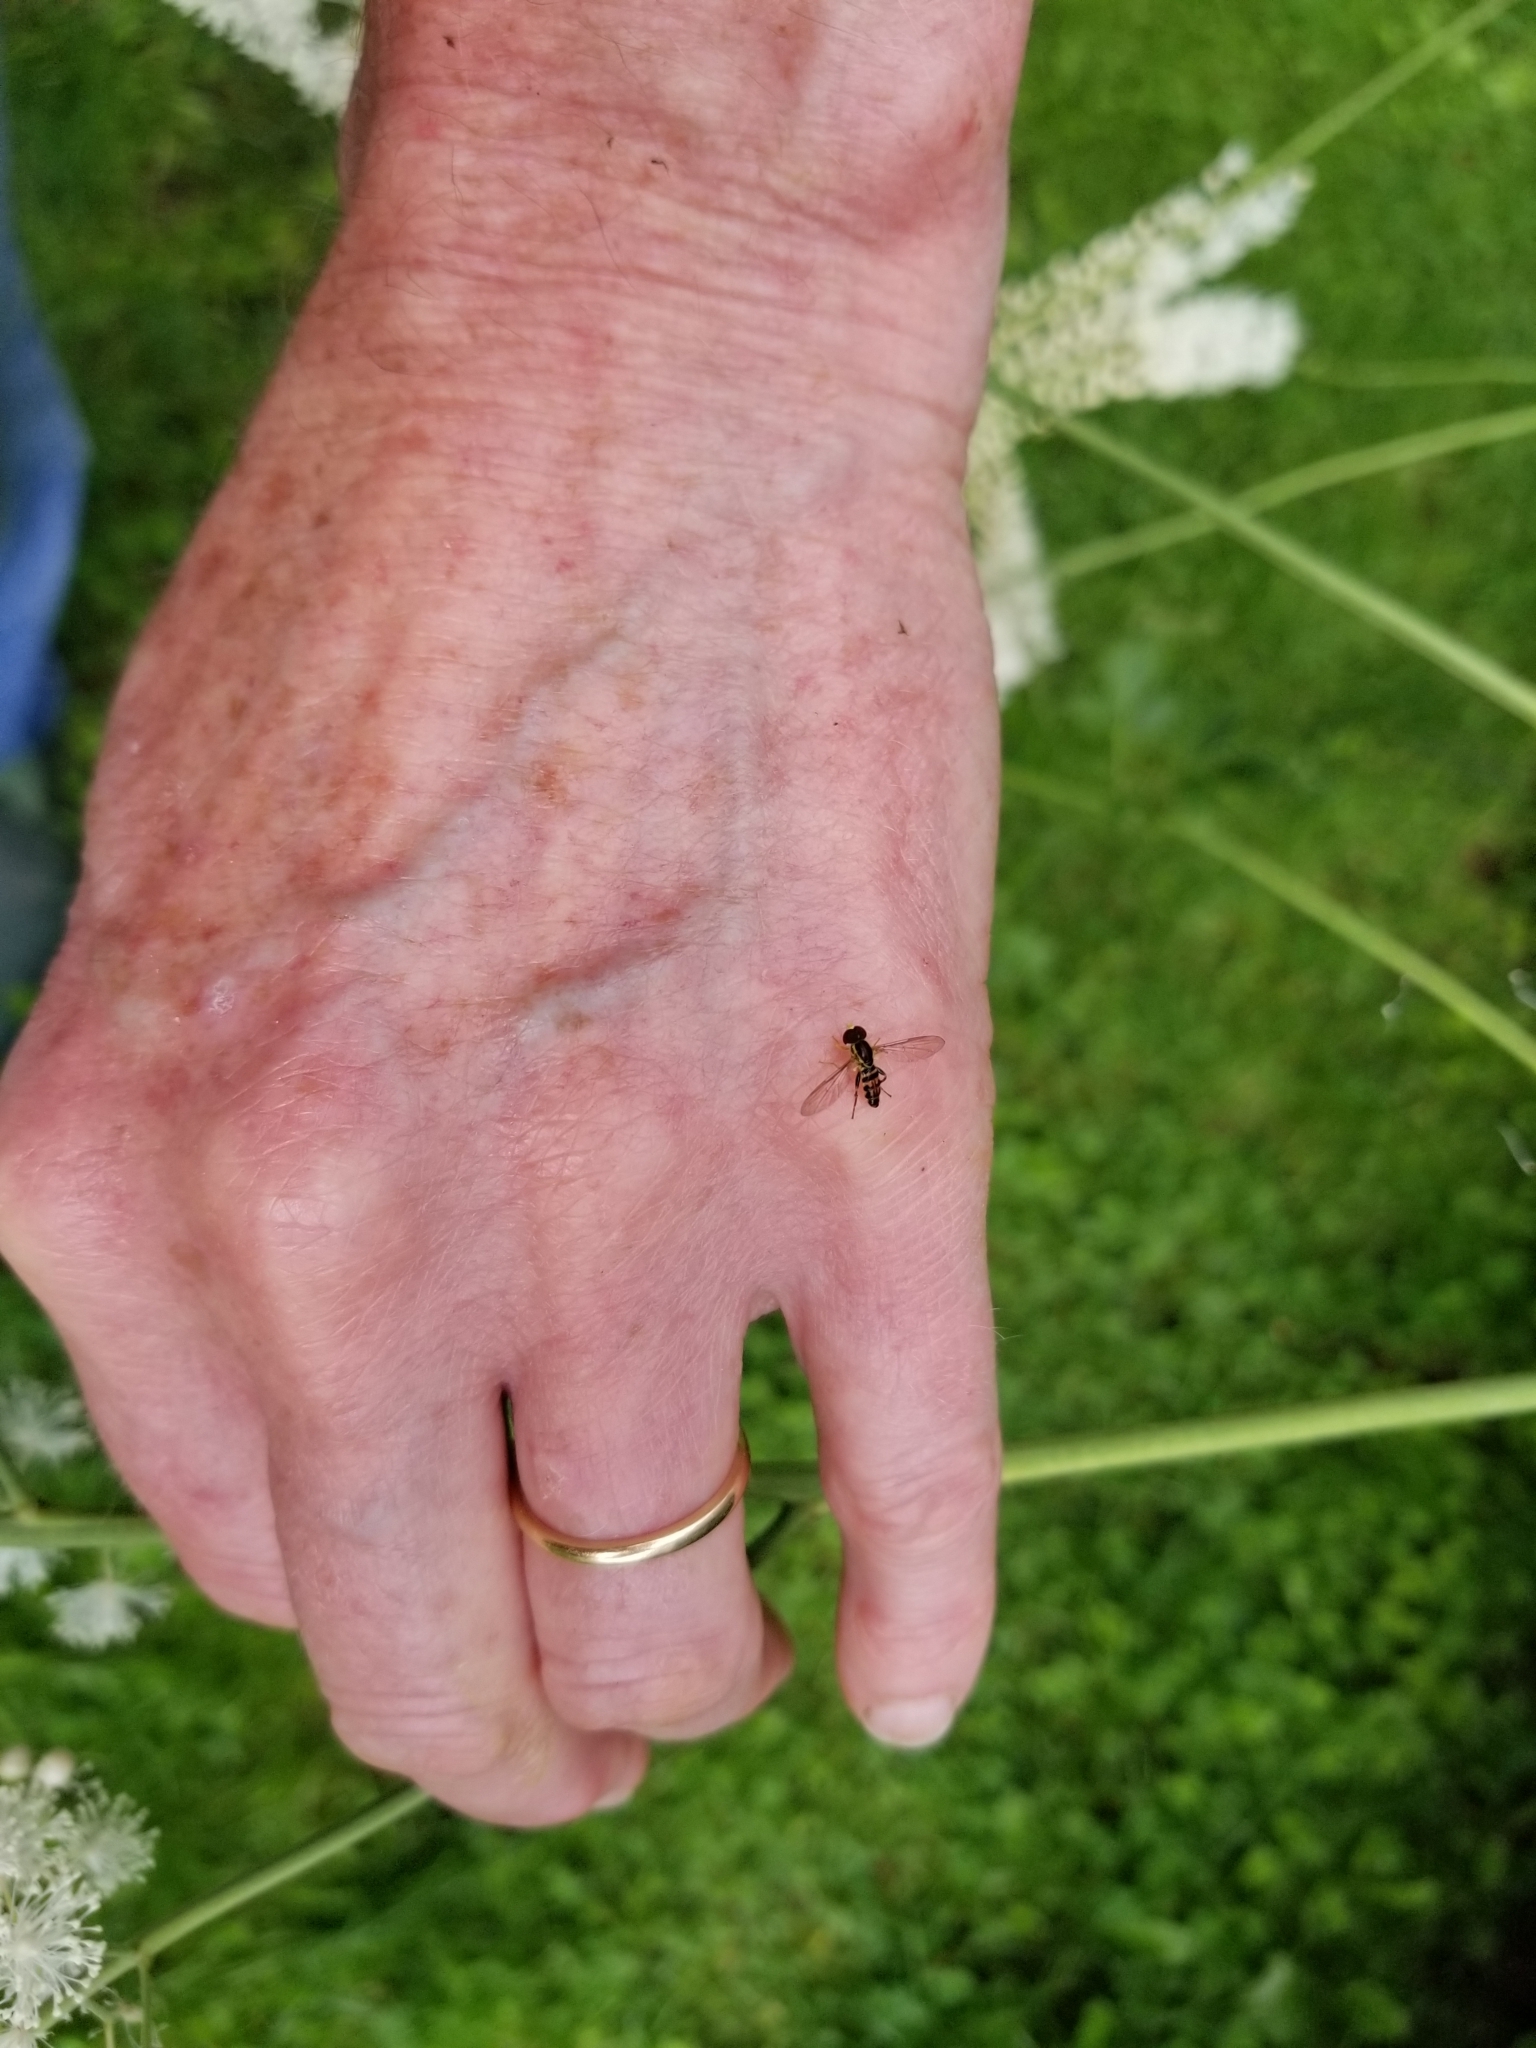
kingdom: Animalia
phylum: Arthropoda
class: Insecta
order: Diptera
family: Syrphidae
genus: Toxomerus
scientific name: Toxomerus geminatus
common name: Eastern calligrapher
